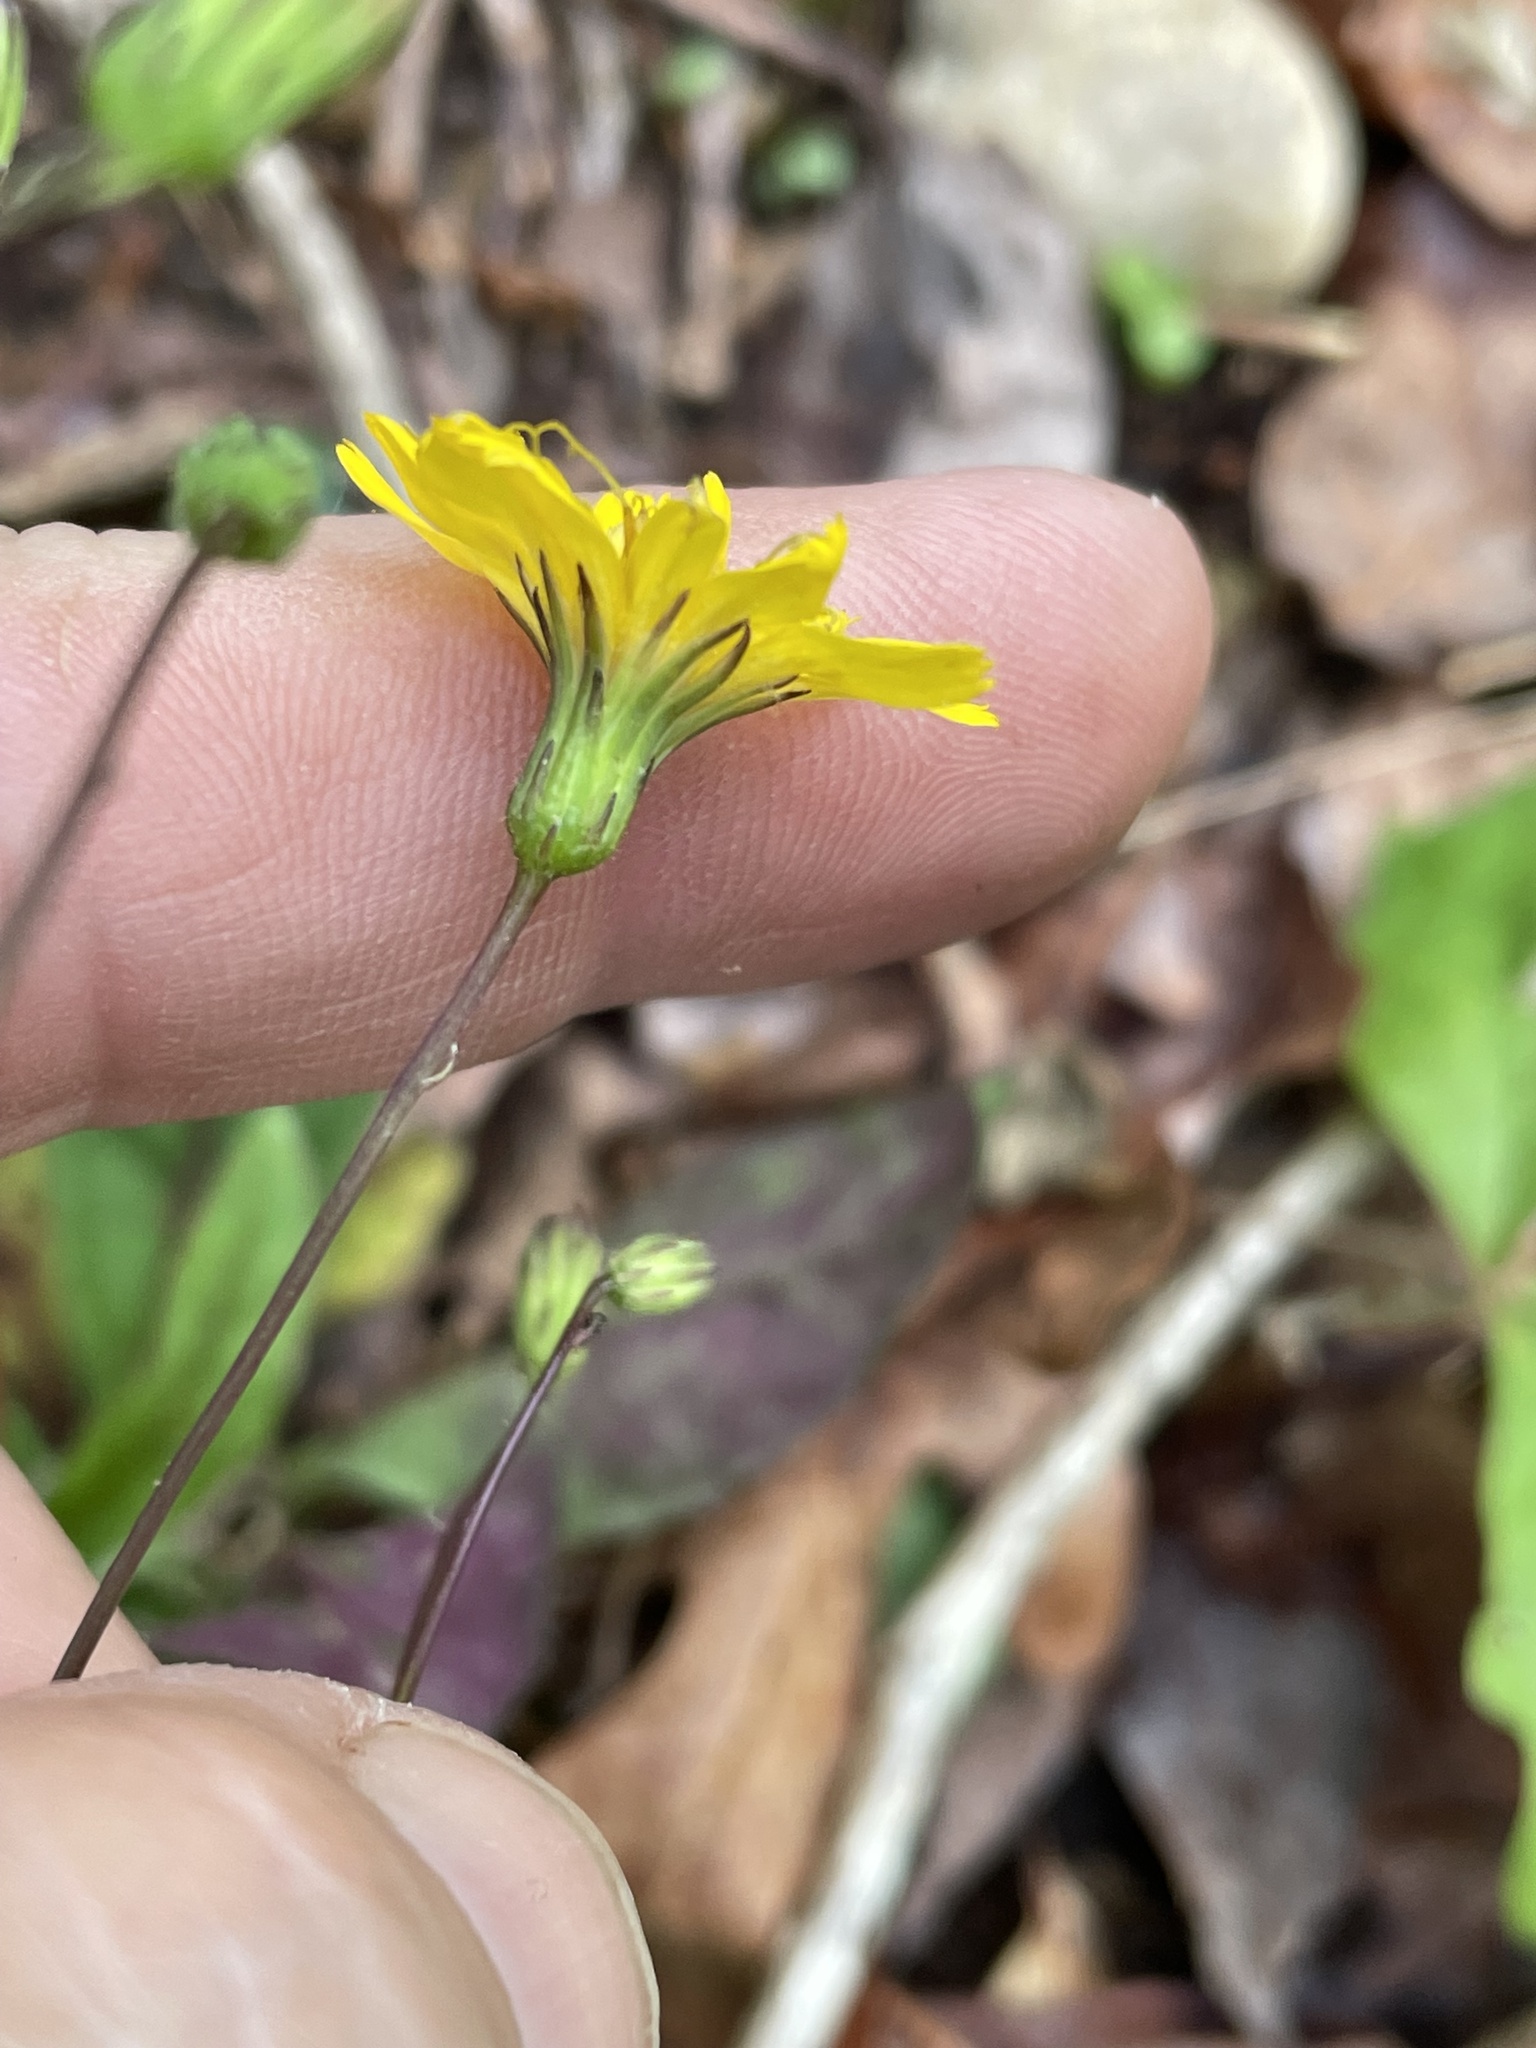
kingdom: Plantae
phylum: Tracheophyta
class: Magnoliopsida
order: Asterales
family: Asteraceae
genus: Hieracium
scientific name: Hieracium venosum
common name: Rattlesnake hawkweed
